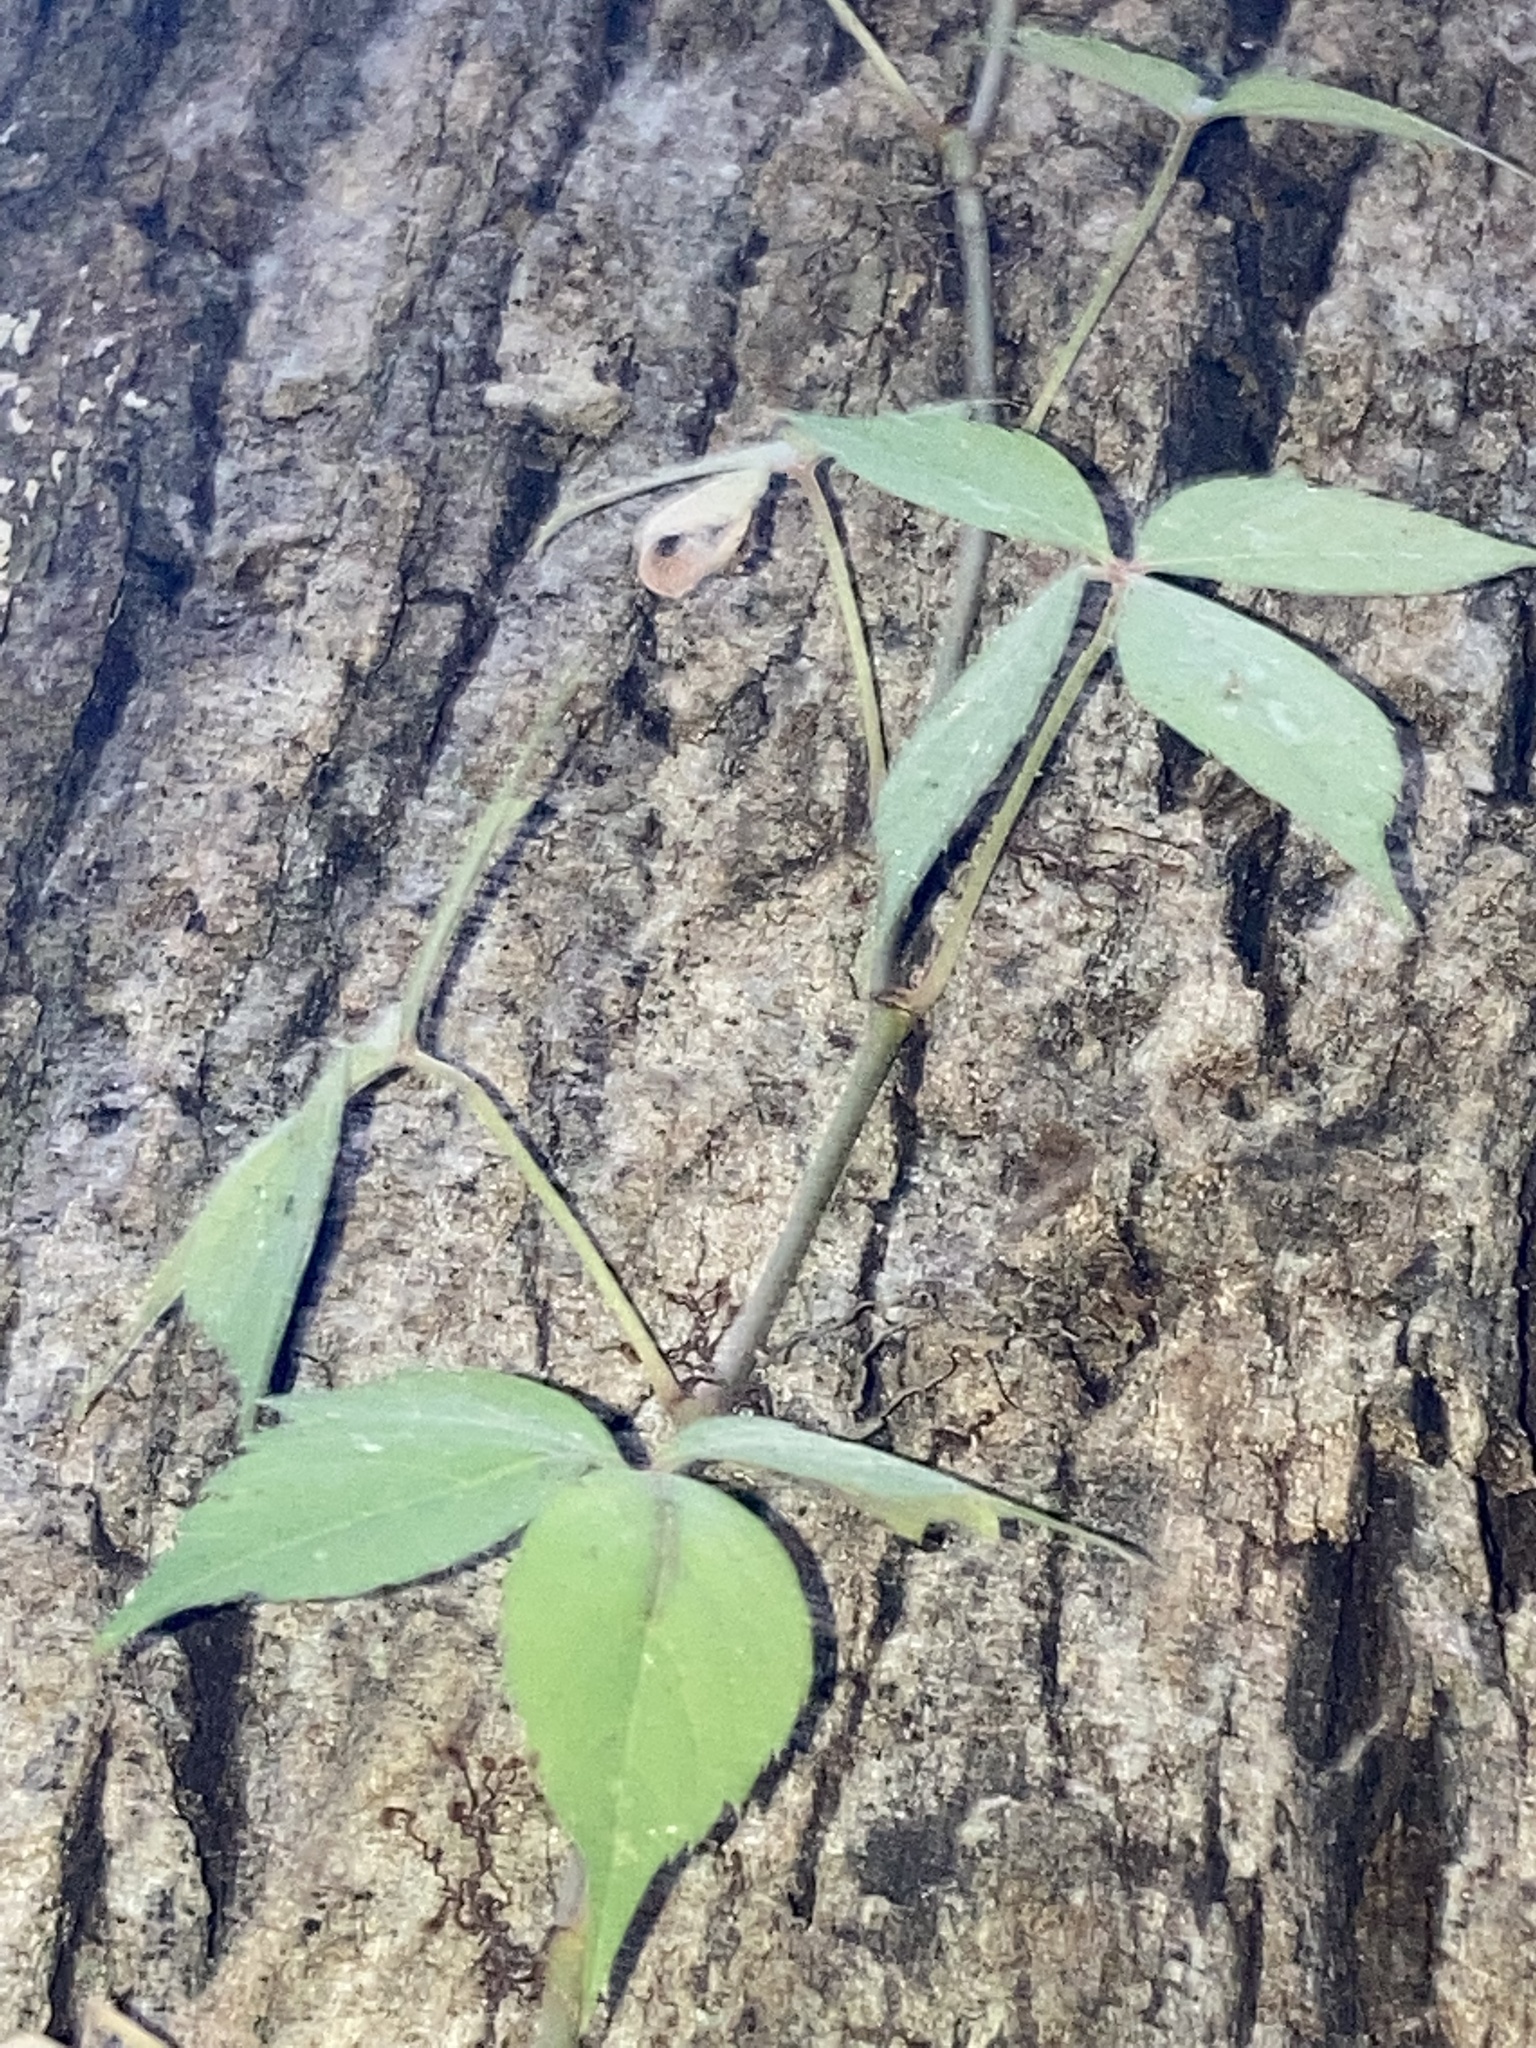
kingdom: Plantae
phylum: Tracheophyta
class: Magnoliopsida
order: Vitales
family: Vitaceae
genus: Parthenocissus
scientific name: Parthenocissus quinquefolia
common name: Virginia-creeper
